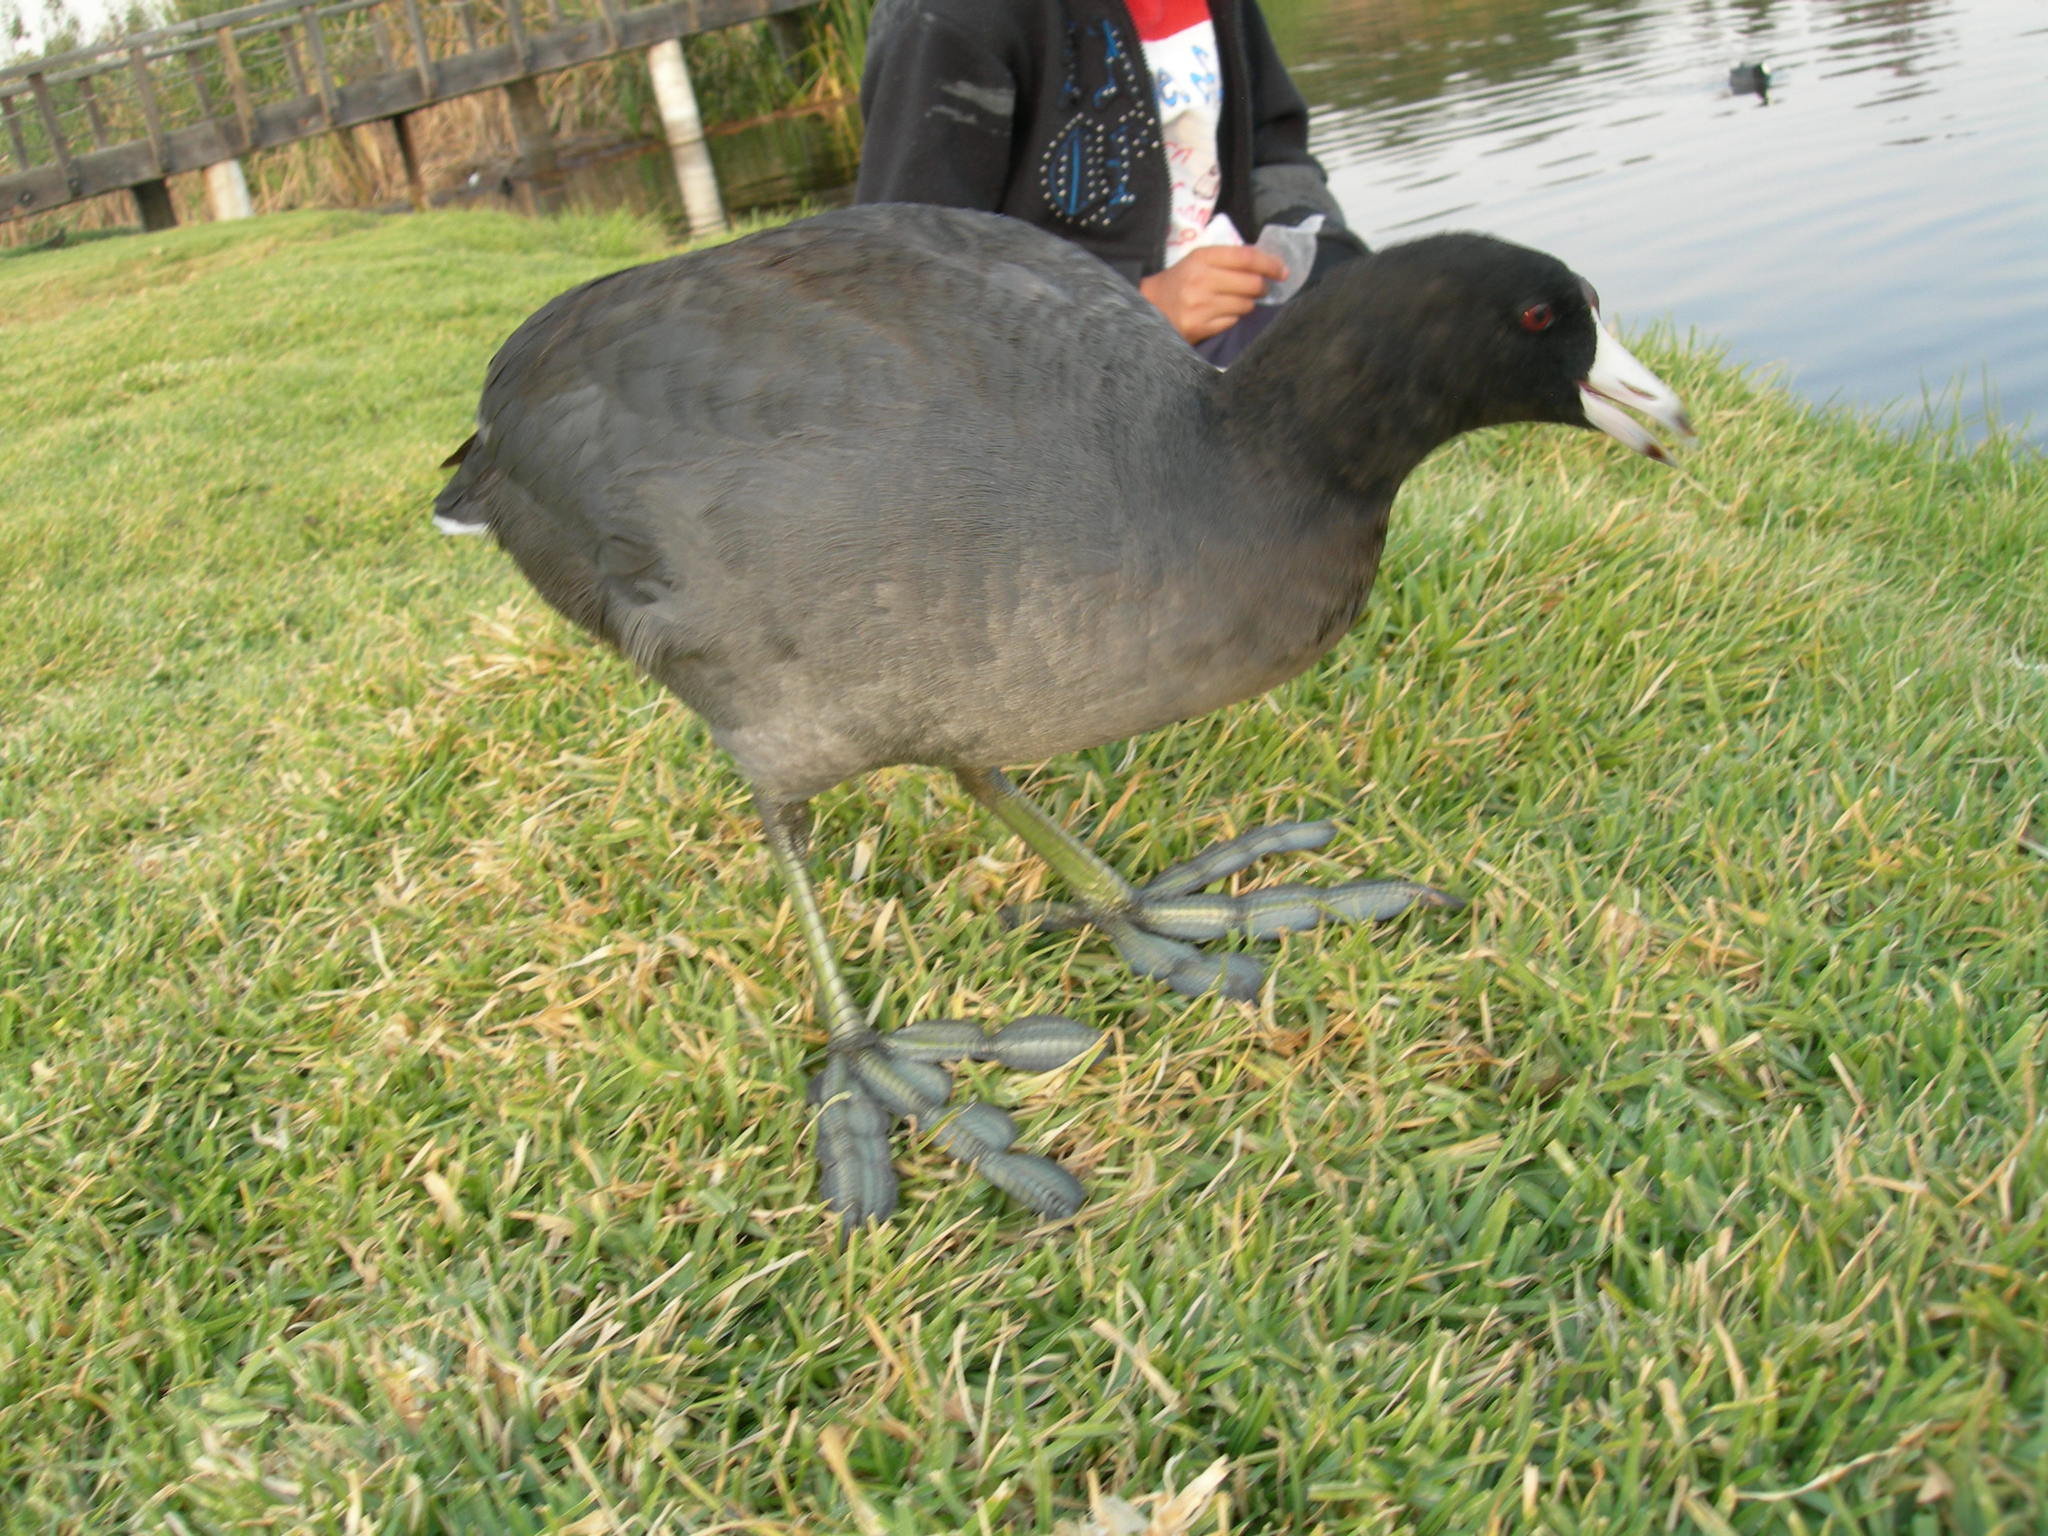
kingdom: Animalia
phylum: Chordata
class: Aves
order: Gruiformes
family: Rallidae
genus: Fulica
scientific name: Fulica americana
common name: American coot
